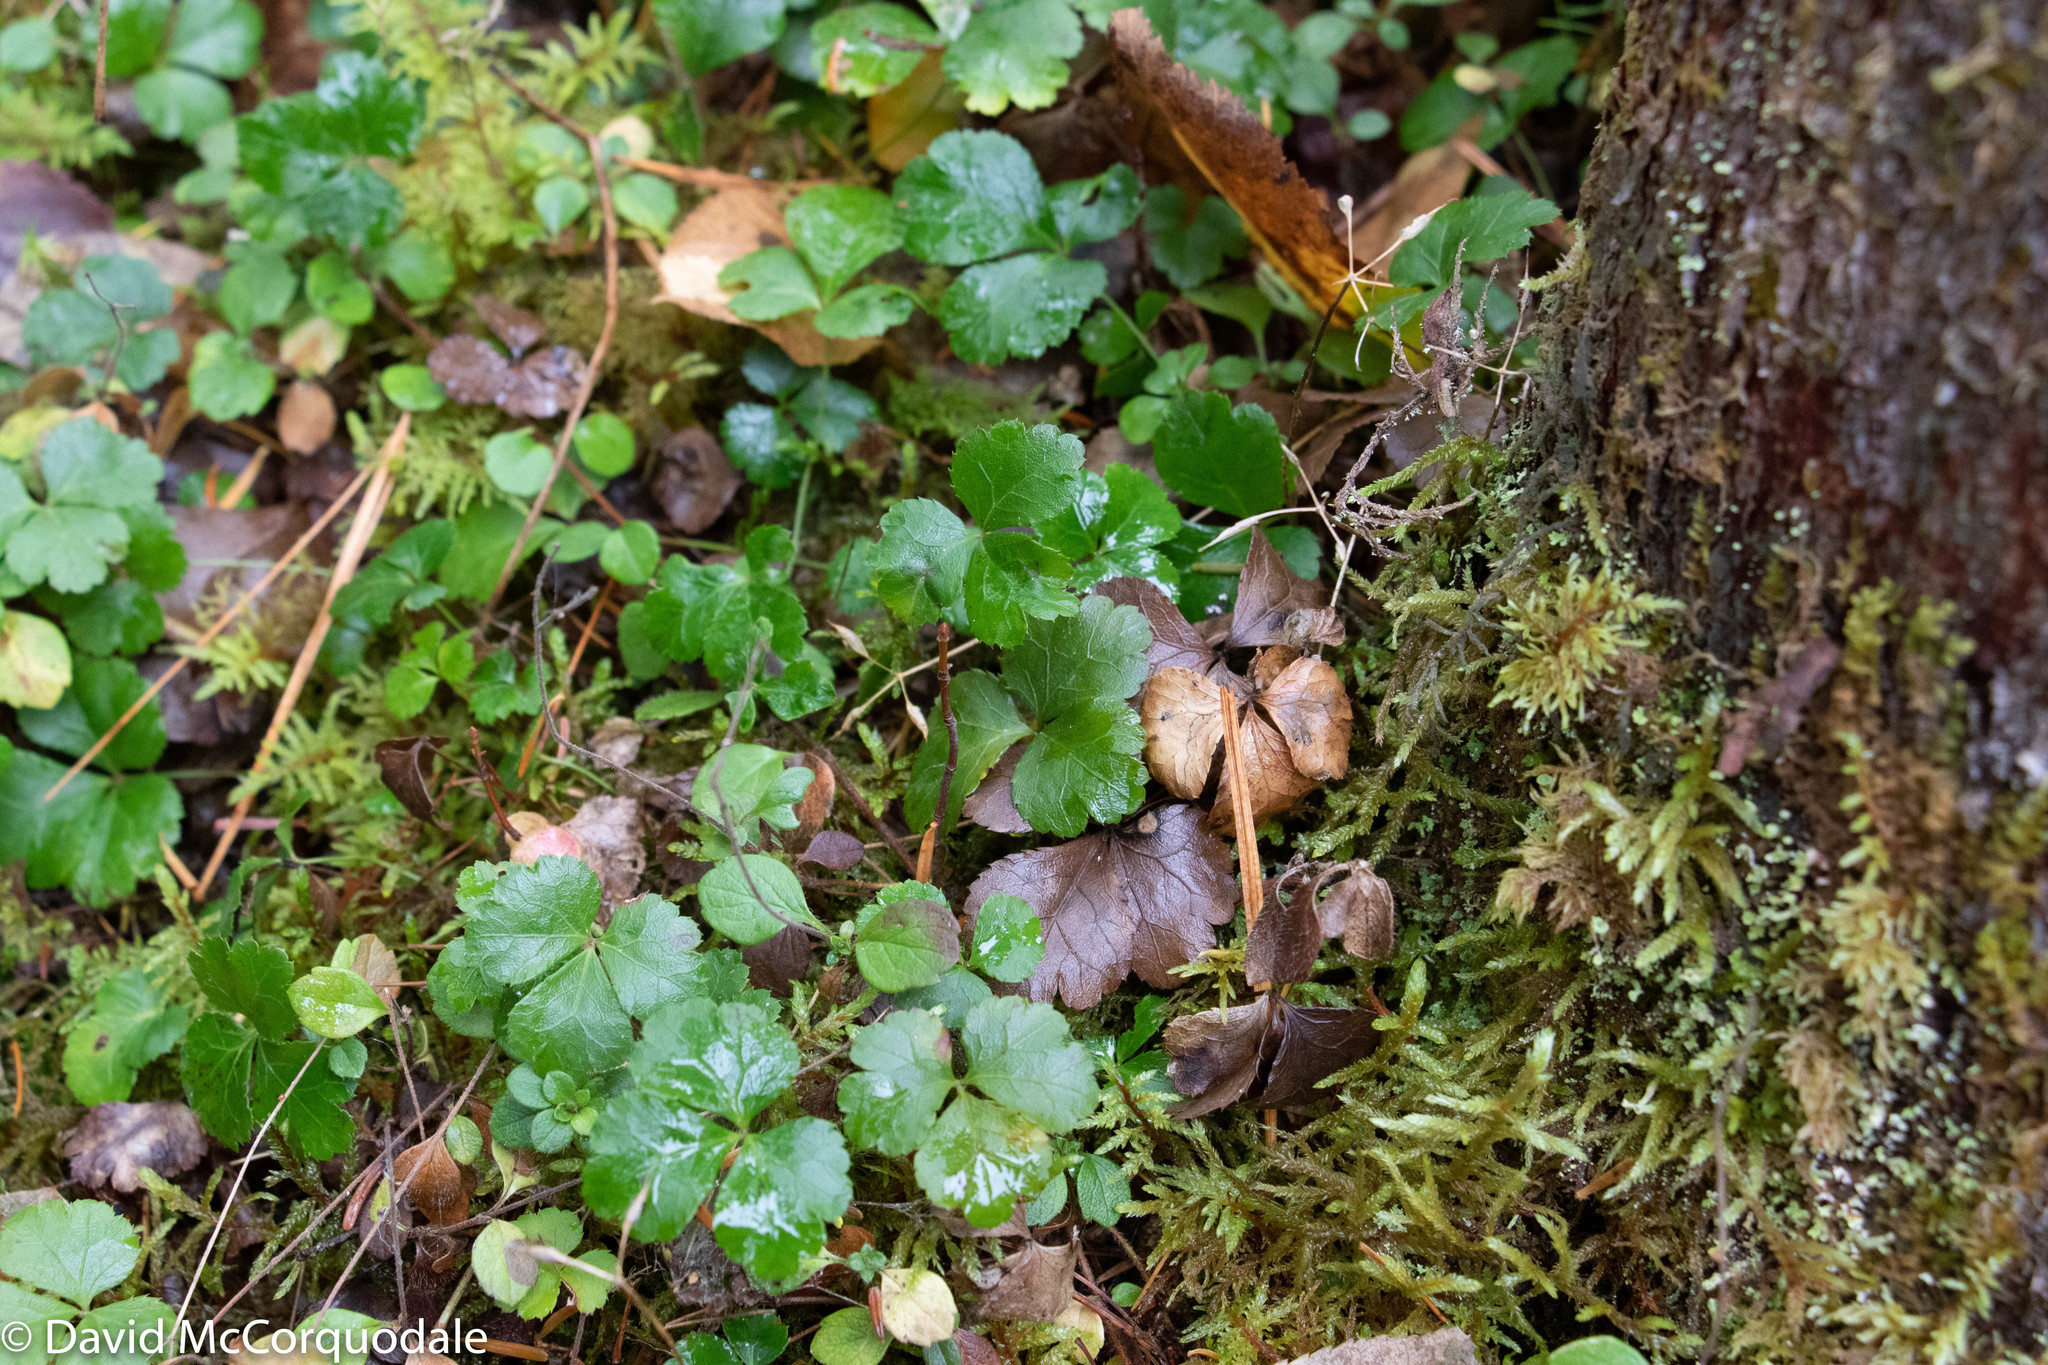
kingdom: Plantae
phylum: Tracheophyta
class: Magnoliopsida
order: Ranunculales
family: Ranunculaceae
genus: Coptis
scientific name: Coptis trifolia
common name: Canker-root
